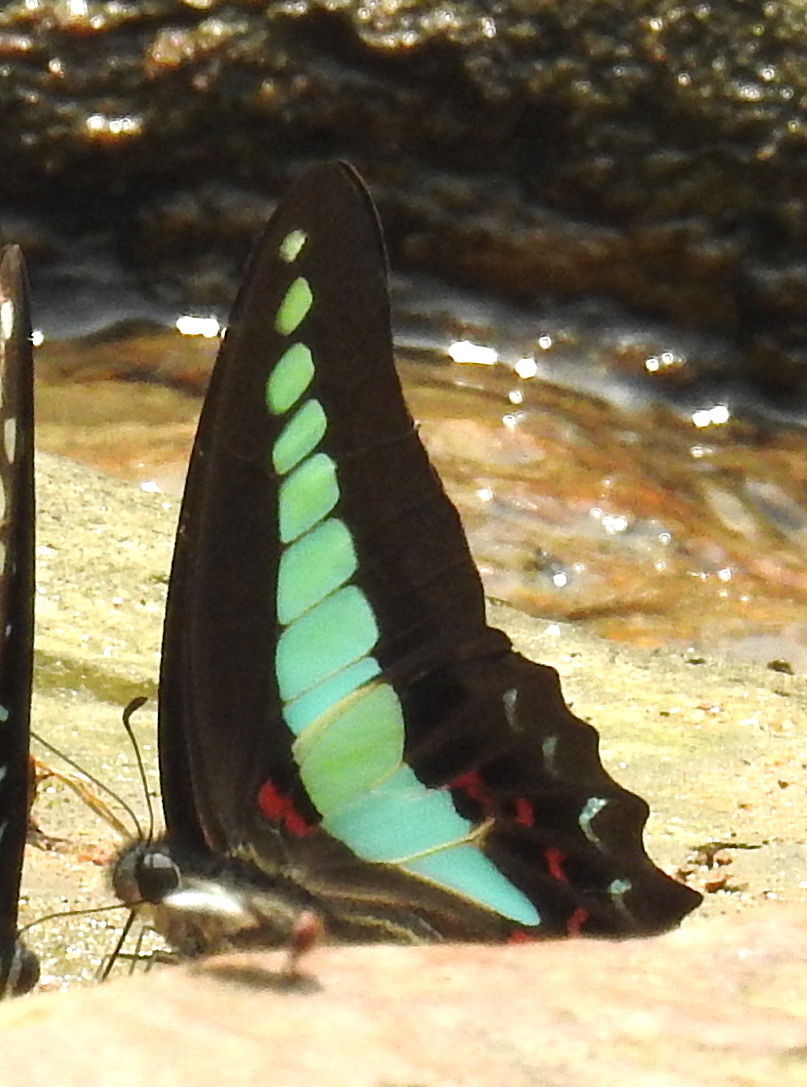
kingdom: Fungi
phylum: Ascomycota
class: Sordariomycetes
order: Microascales
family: Microascaceae
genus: Graphium
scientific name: Graphium sarpedon
